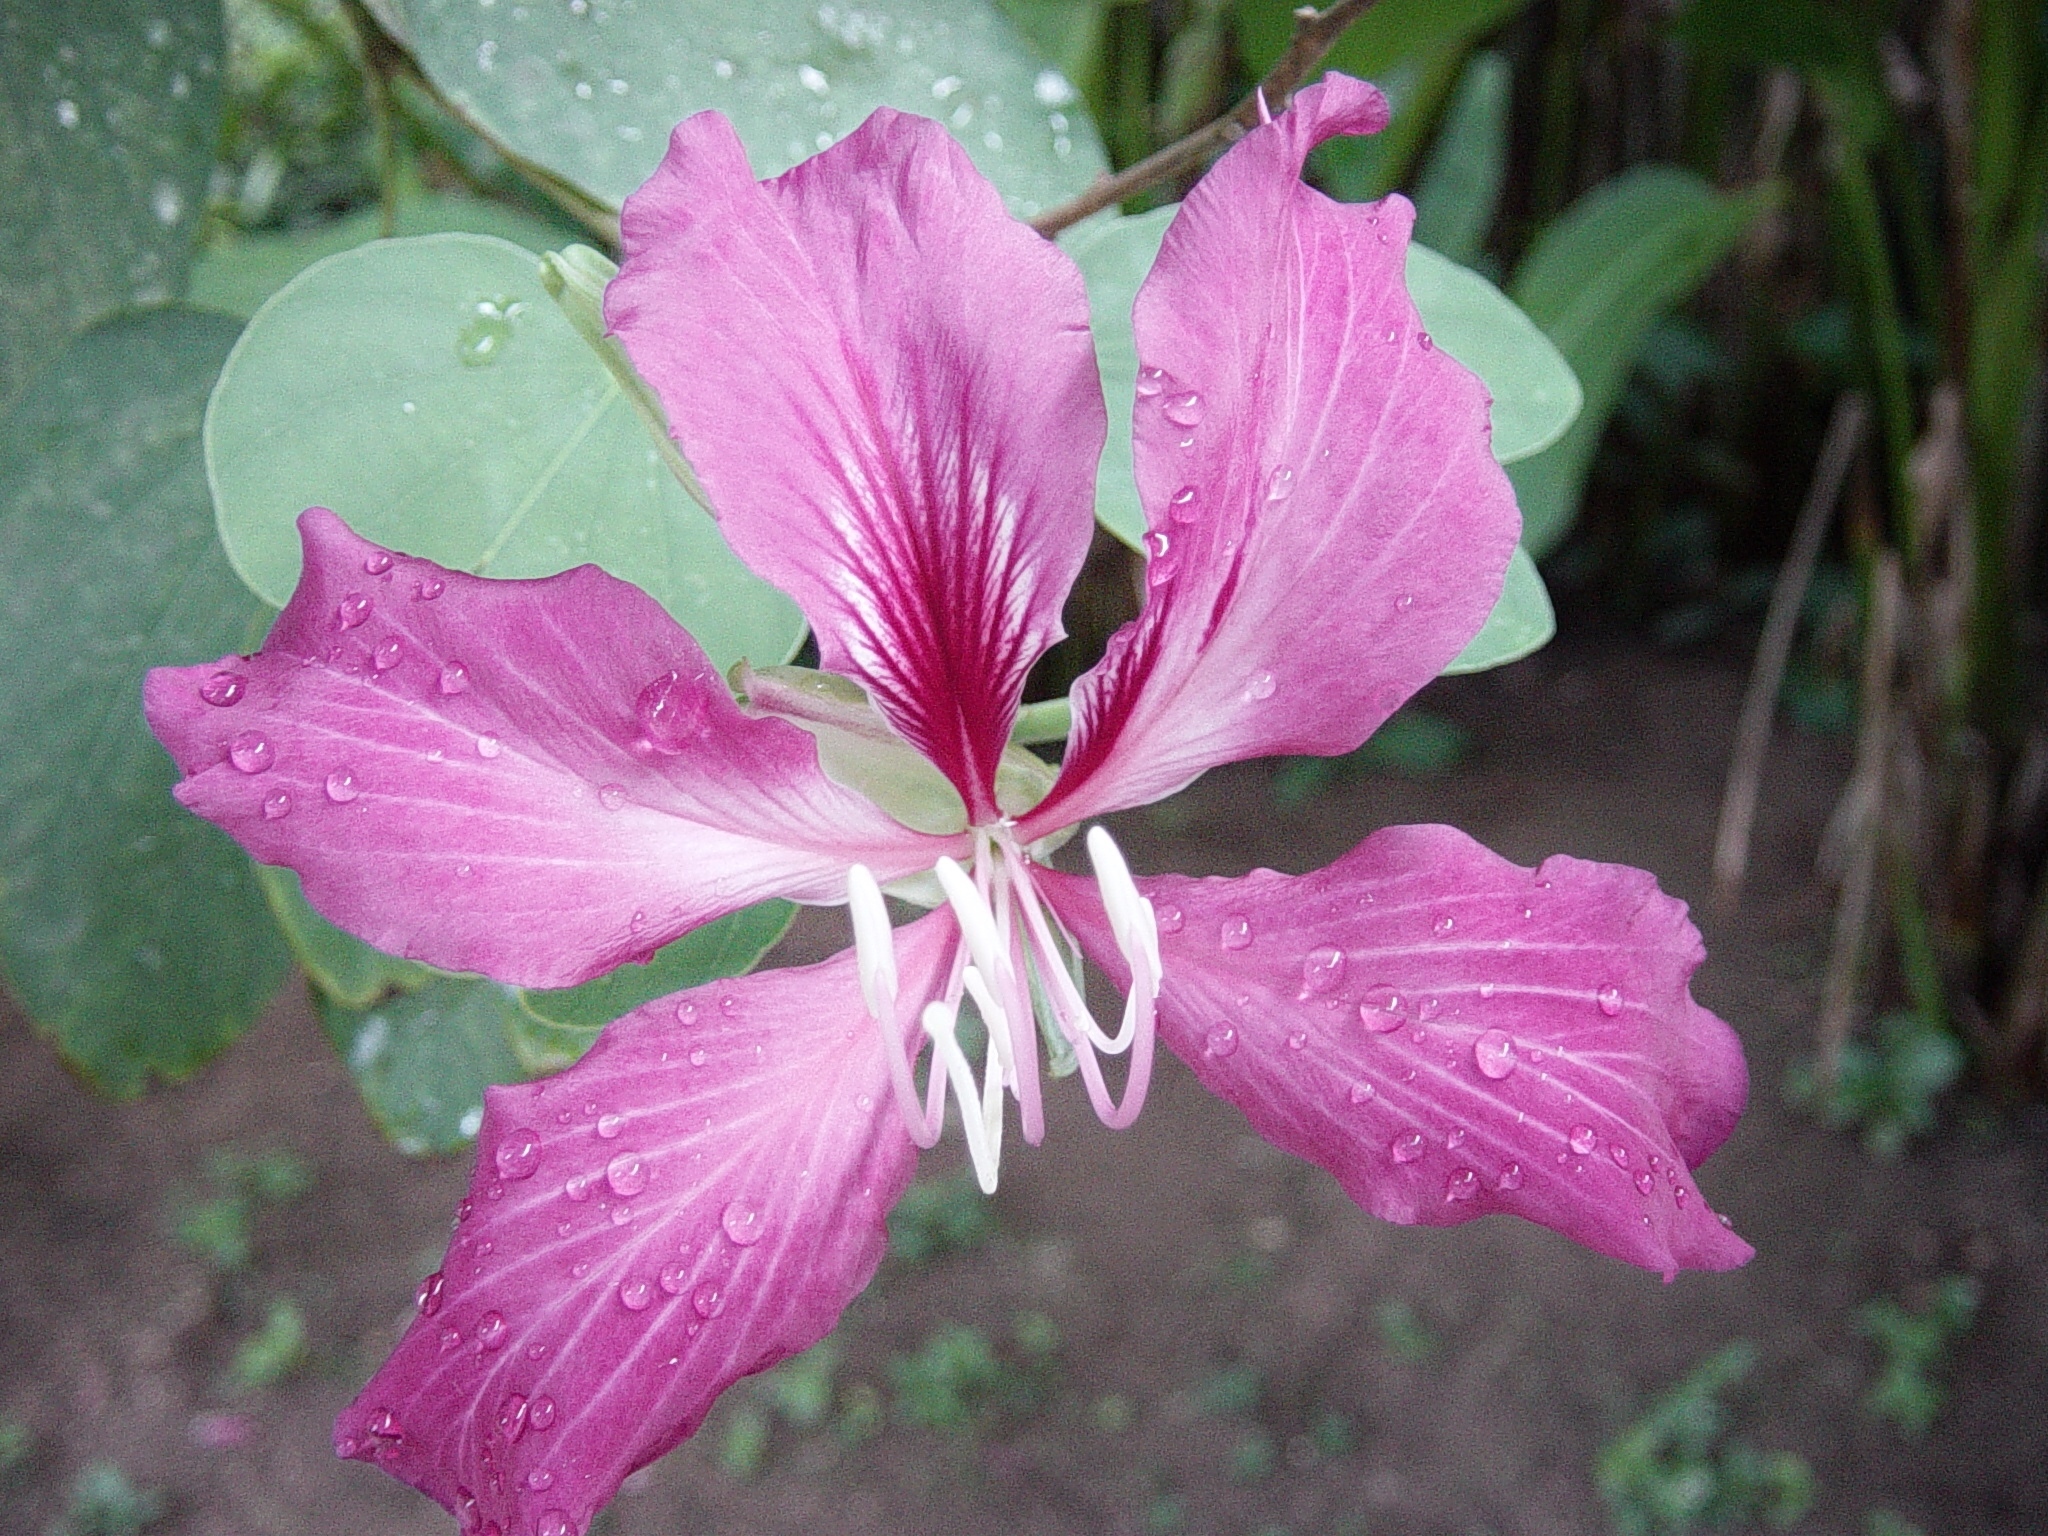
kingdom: Plantae
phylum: Tracheophyta
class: Magnoliopsida
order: Fabales
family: Fabaceae
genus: Bauhinia
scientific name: Bauhinia blakeana
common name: Bauhinia
